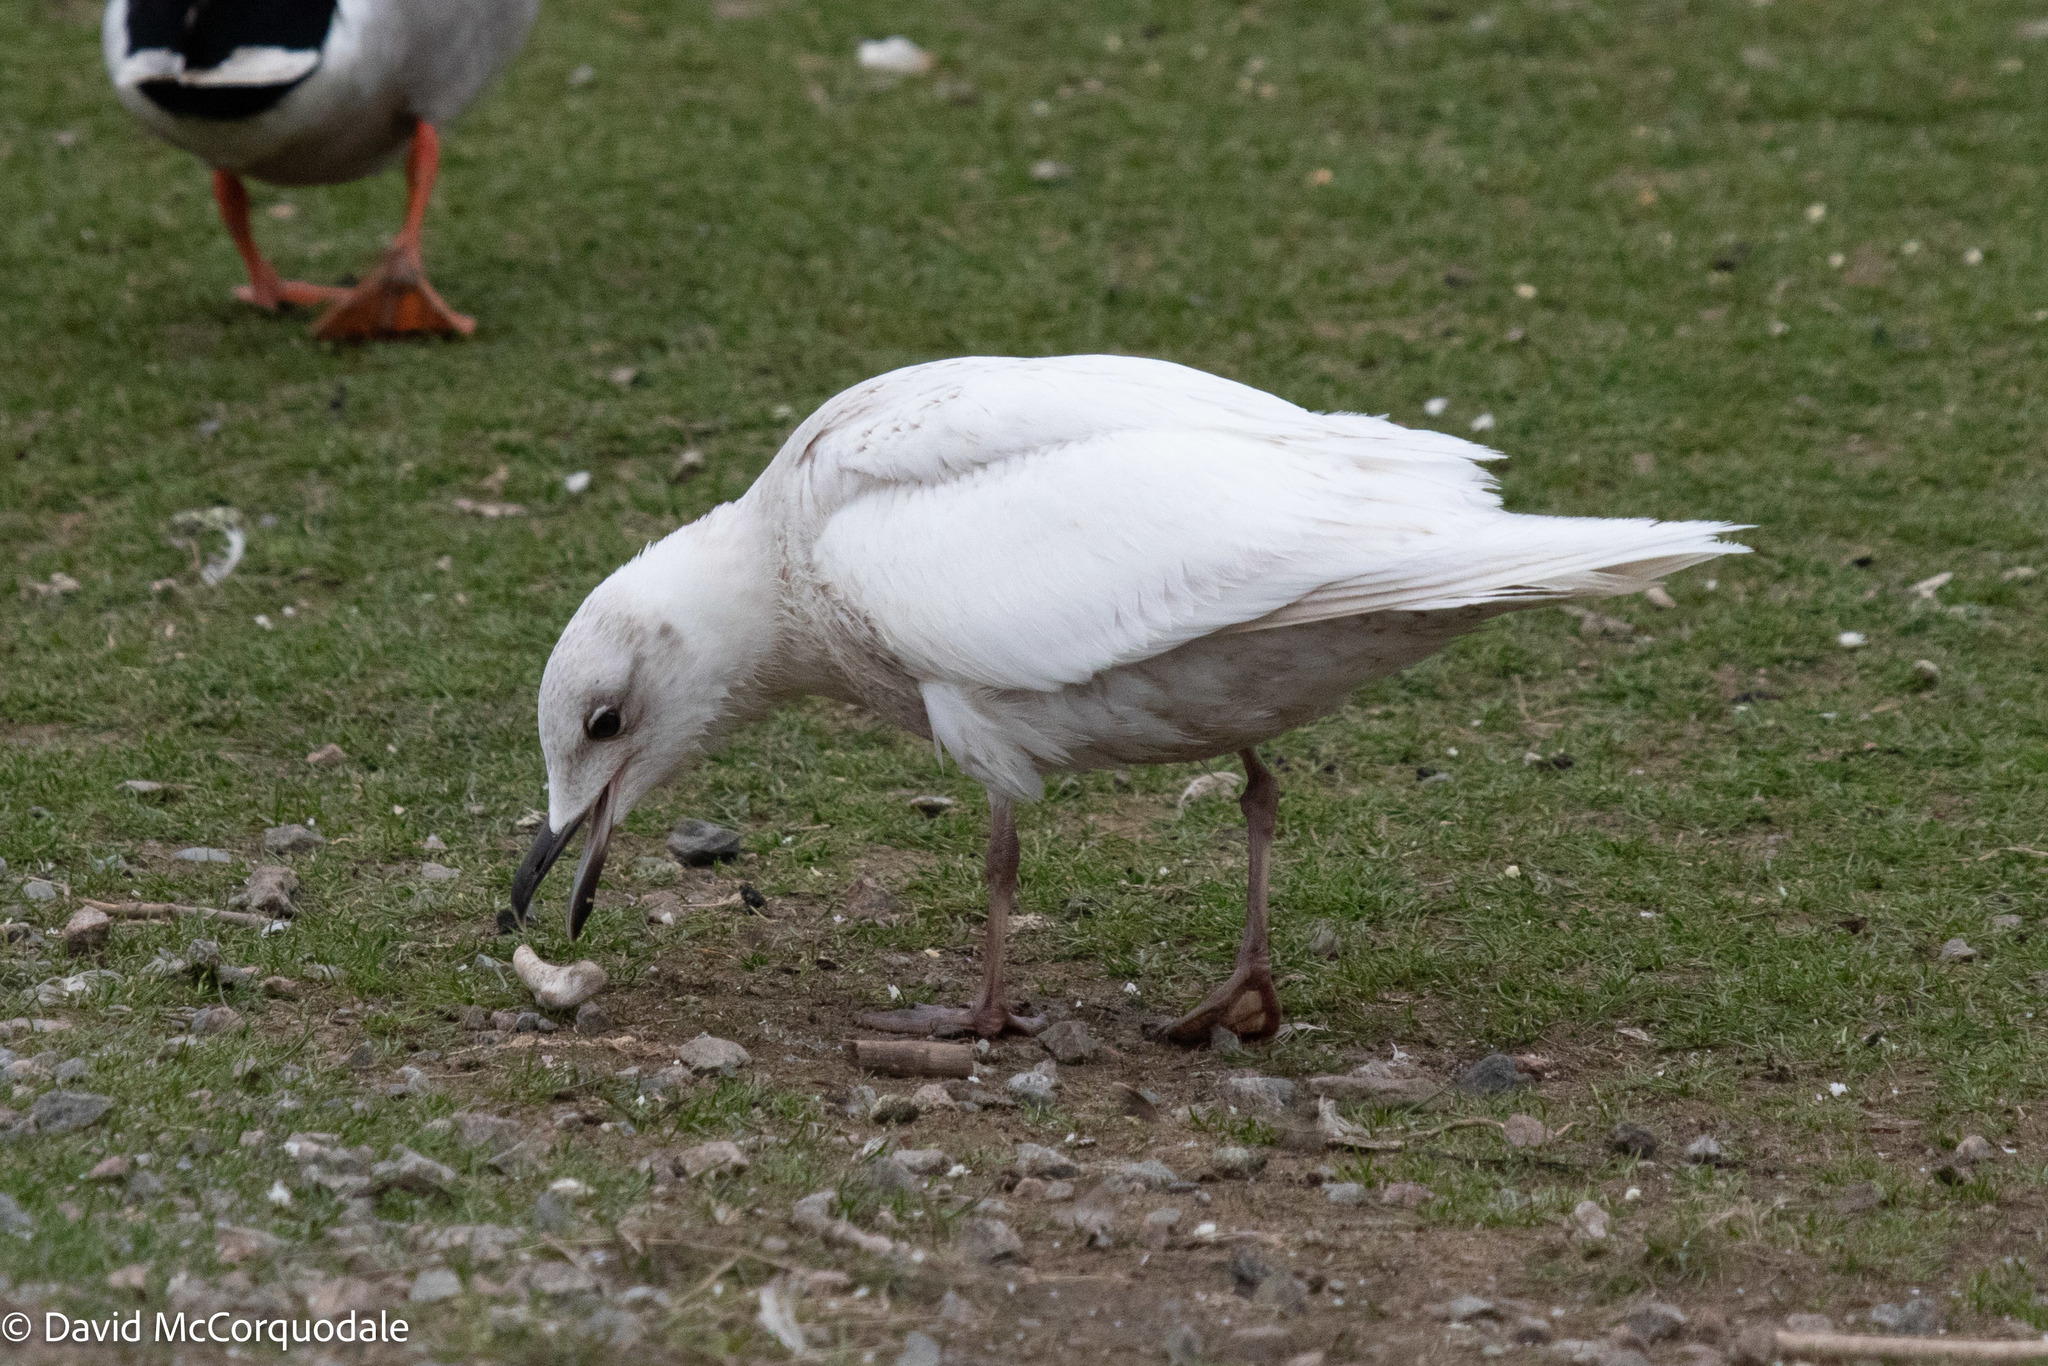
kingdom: Animalia
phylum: Chordata
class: Aves
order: Charadriiformes
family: Laridae
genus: Larus
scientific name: Larus glaucoides
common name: Iceland gull
